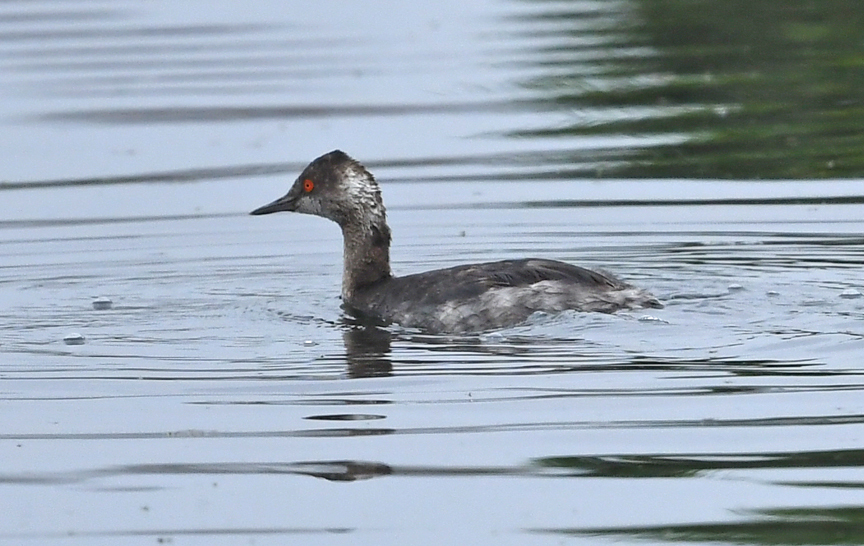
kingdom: Animalia
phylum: Chordata
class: Aves
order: Podicipediformes
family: Podicipedidae
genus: Podiceps
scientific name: Podiceps nigricollis
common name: Black-necked grebe
